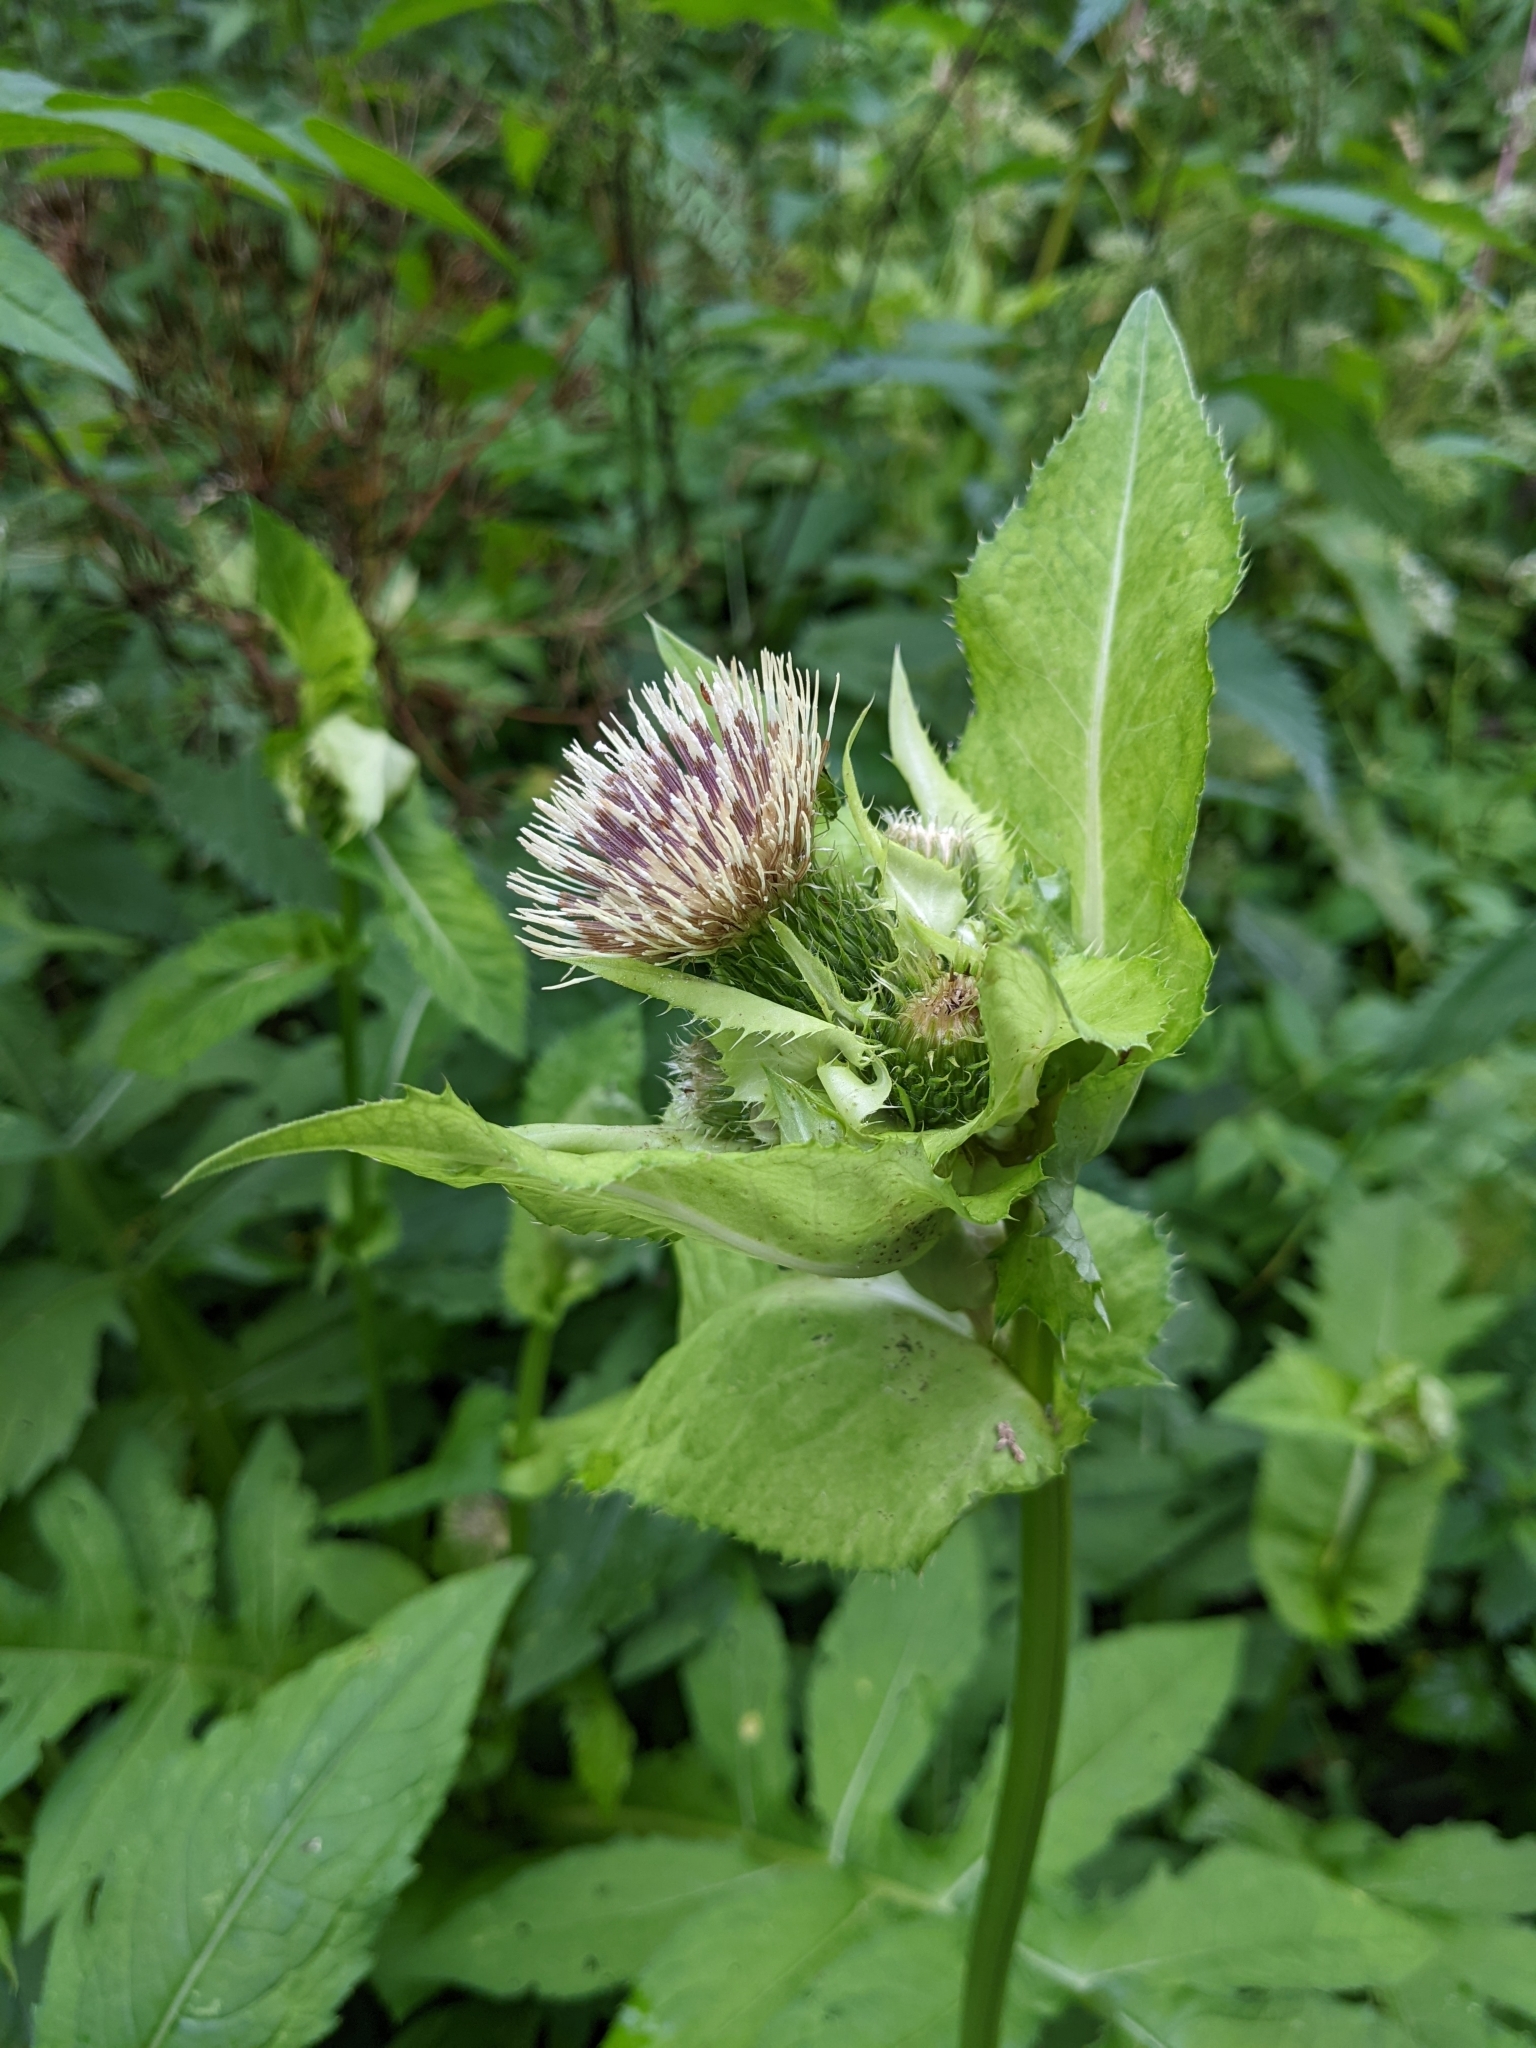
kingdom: Plantae
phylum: Tracheophyta
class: Magnoliopsida
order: Asterales
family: Asteraceae
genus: Cirsium
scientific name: Cirsium oleraceum
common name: Cabbage thistle
